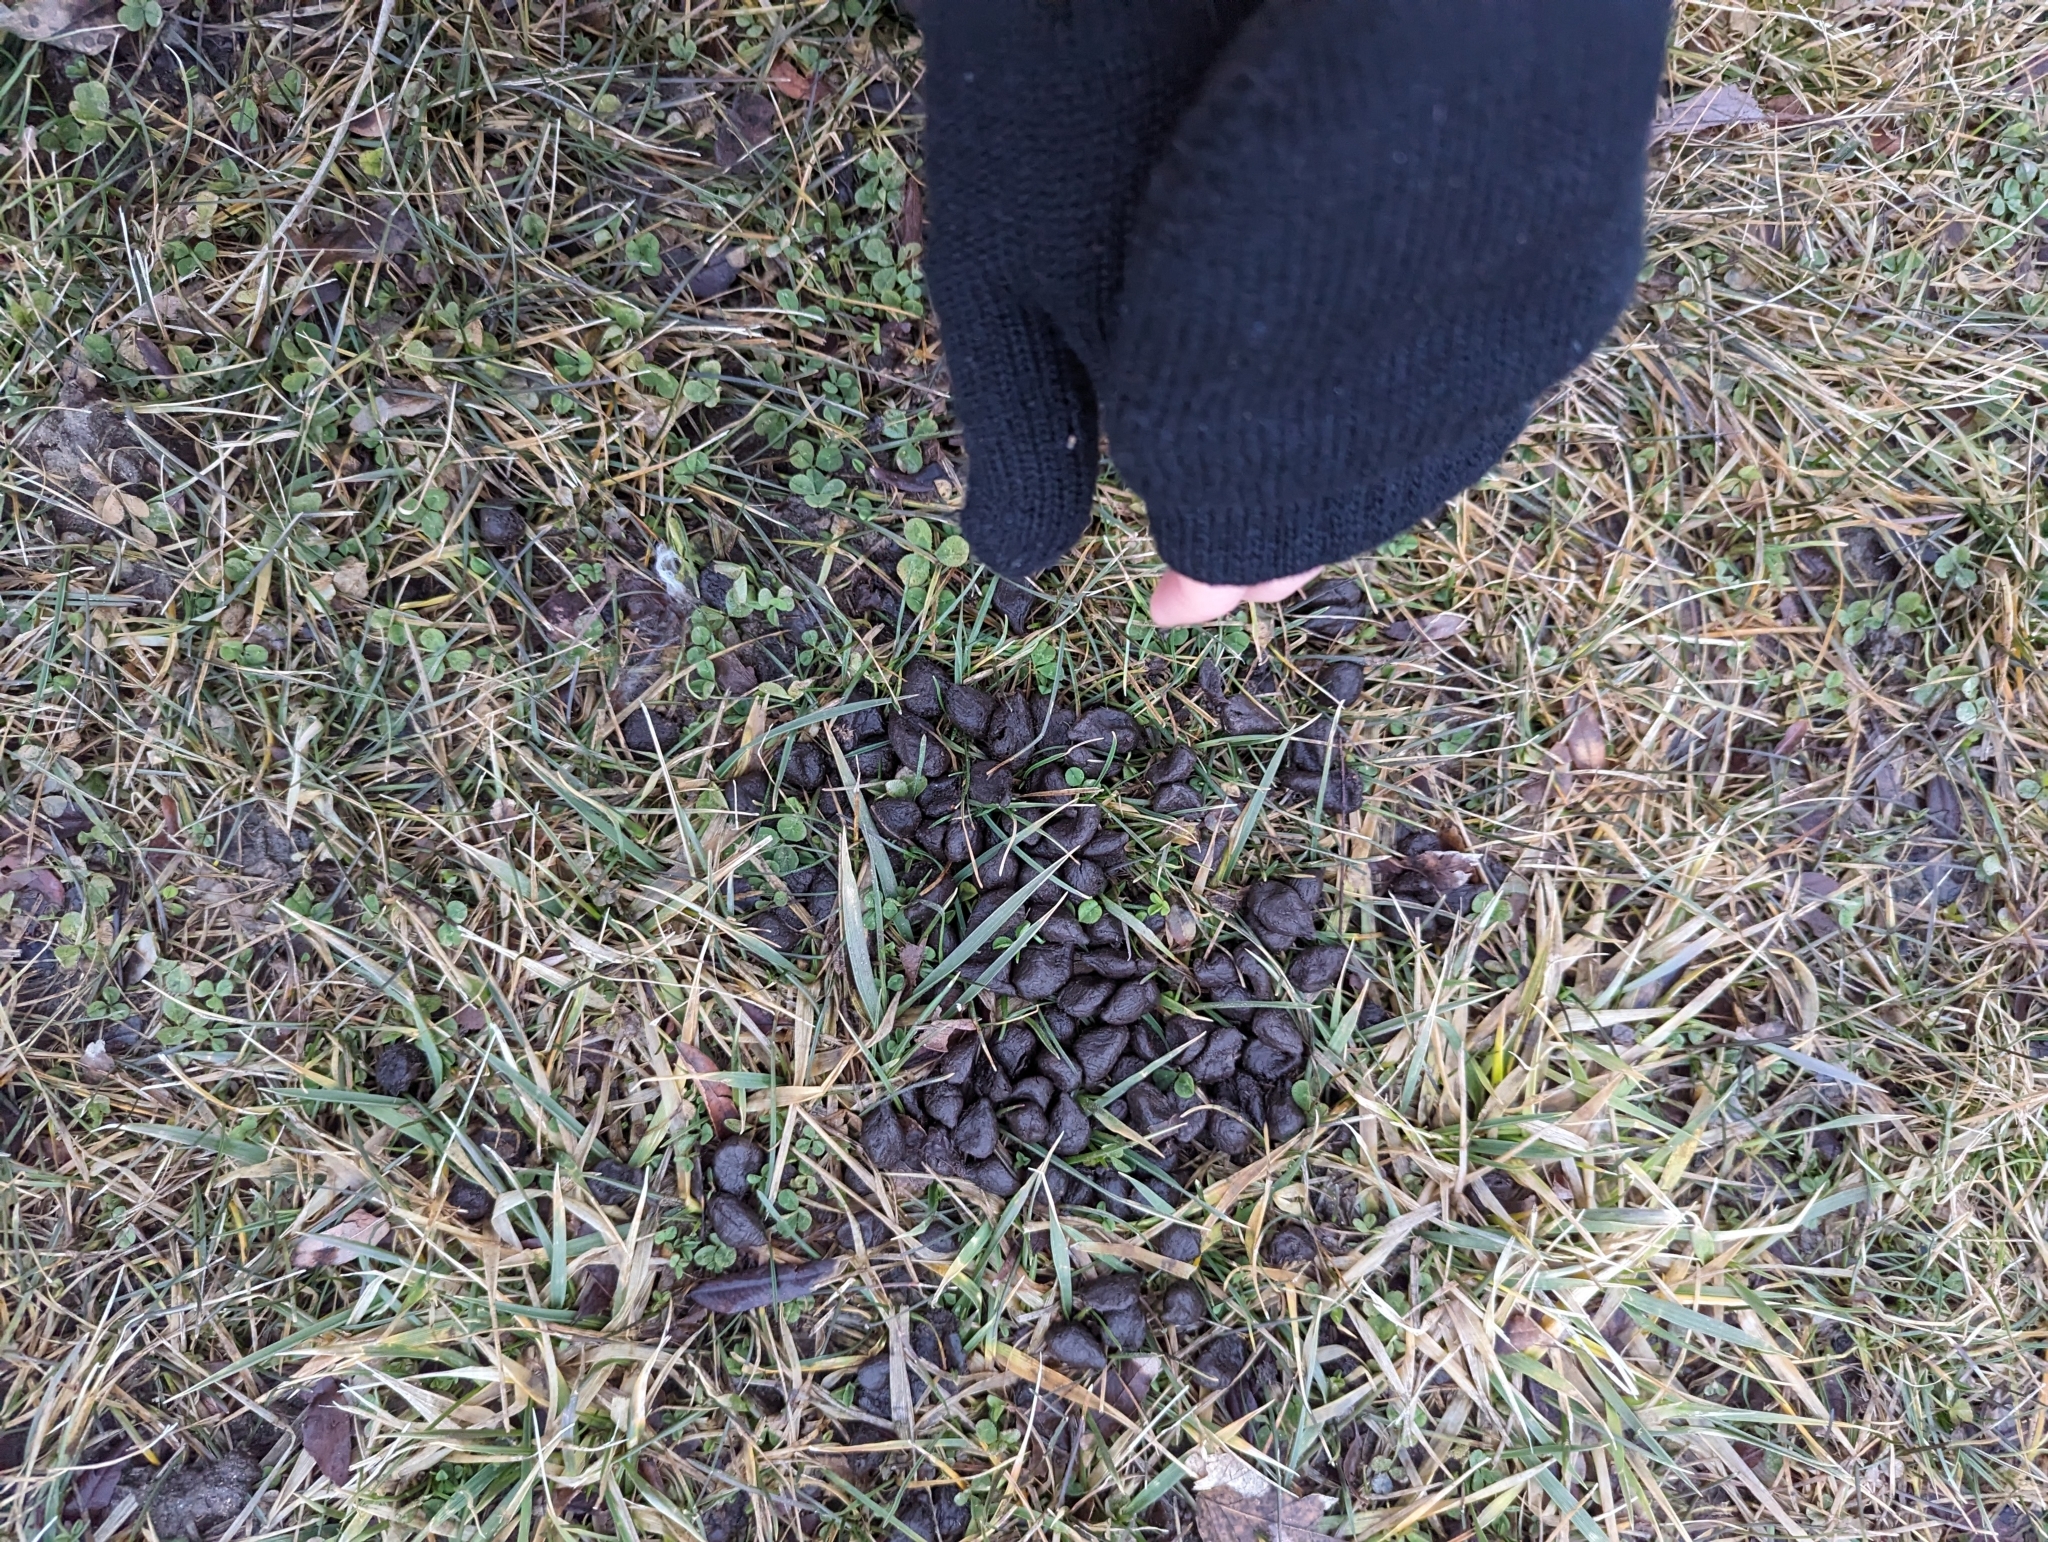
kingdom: Animalia
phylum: Chordata
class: Mammalia
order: Artiodactyla
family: Cervidae
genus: Odocoileus
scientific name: Odocoileus virginianus
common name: White-tailed deer
